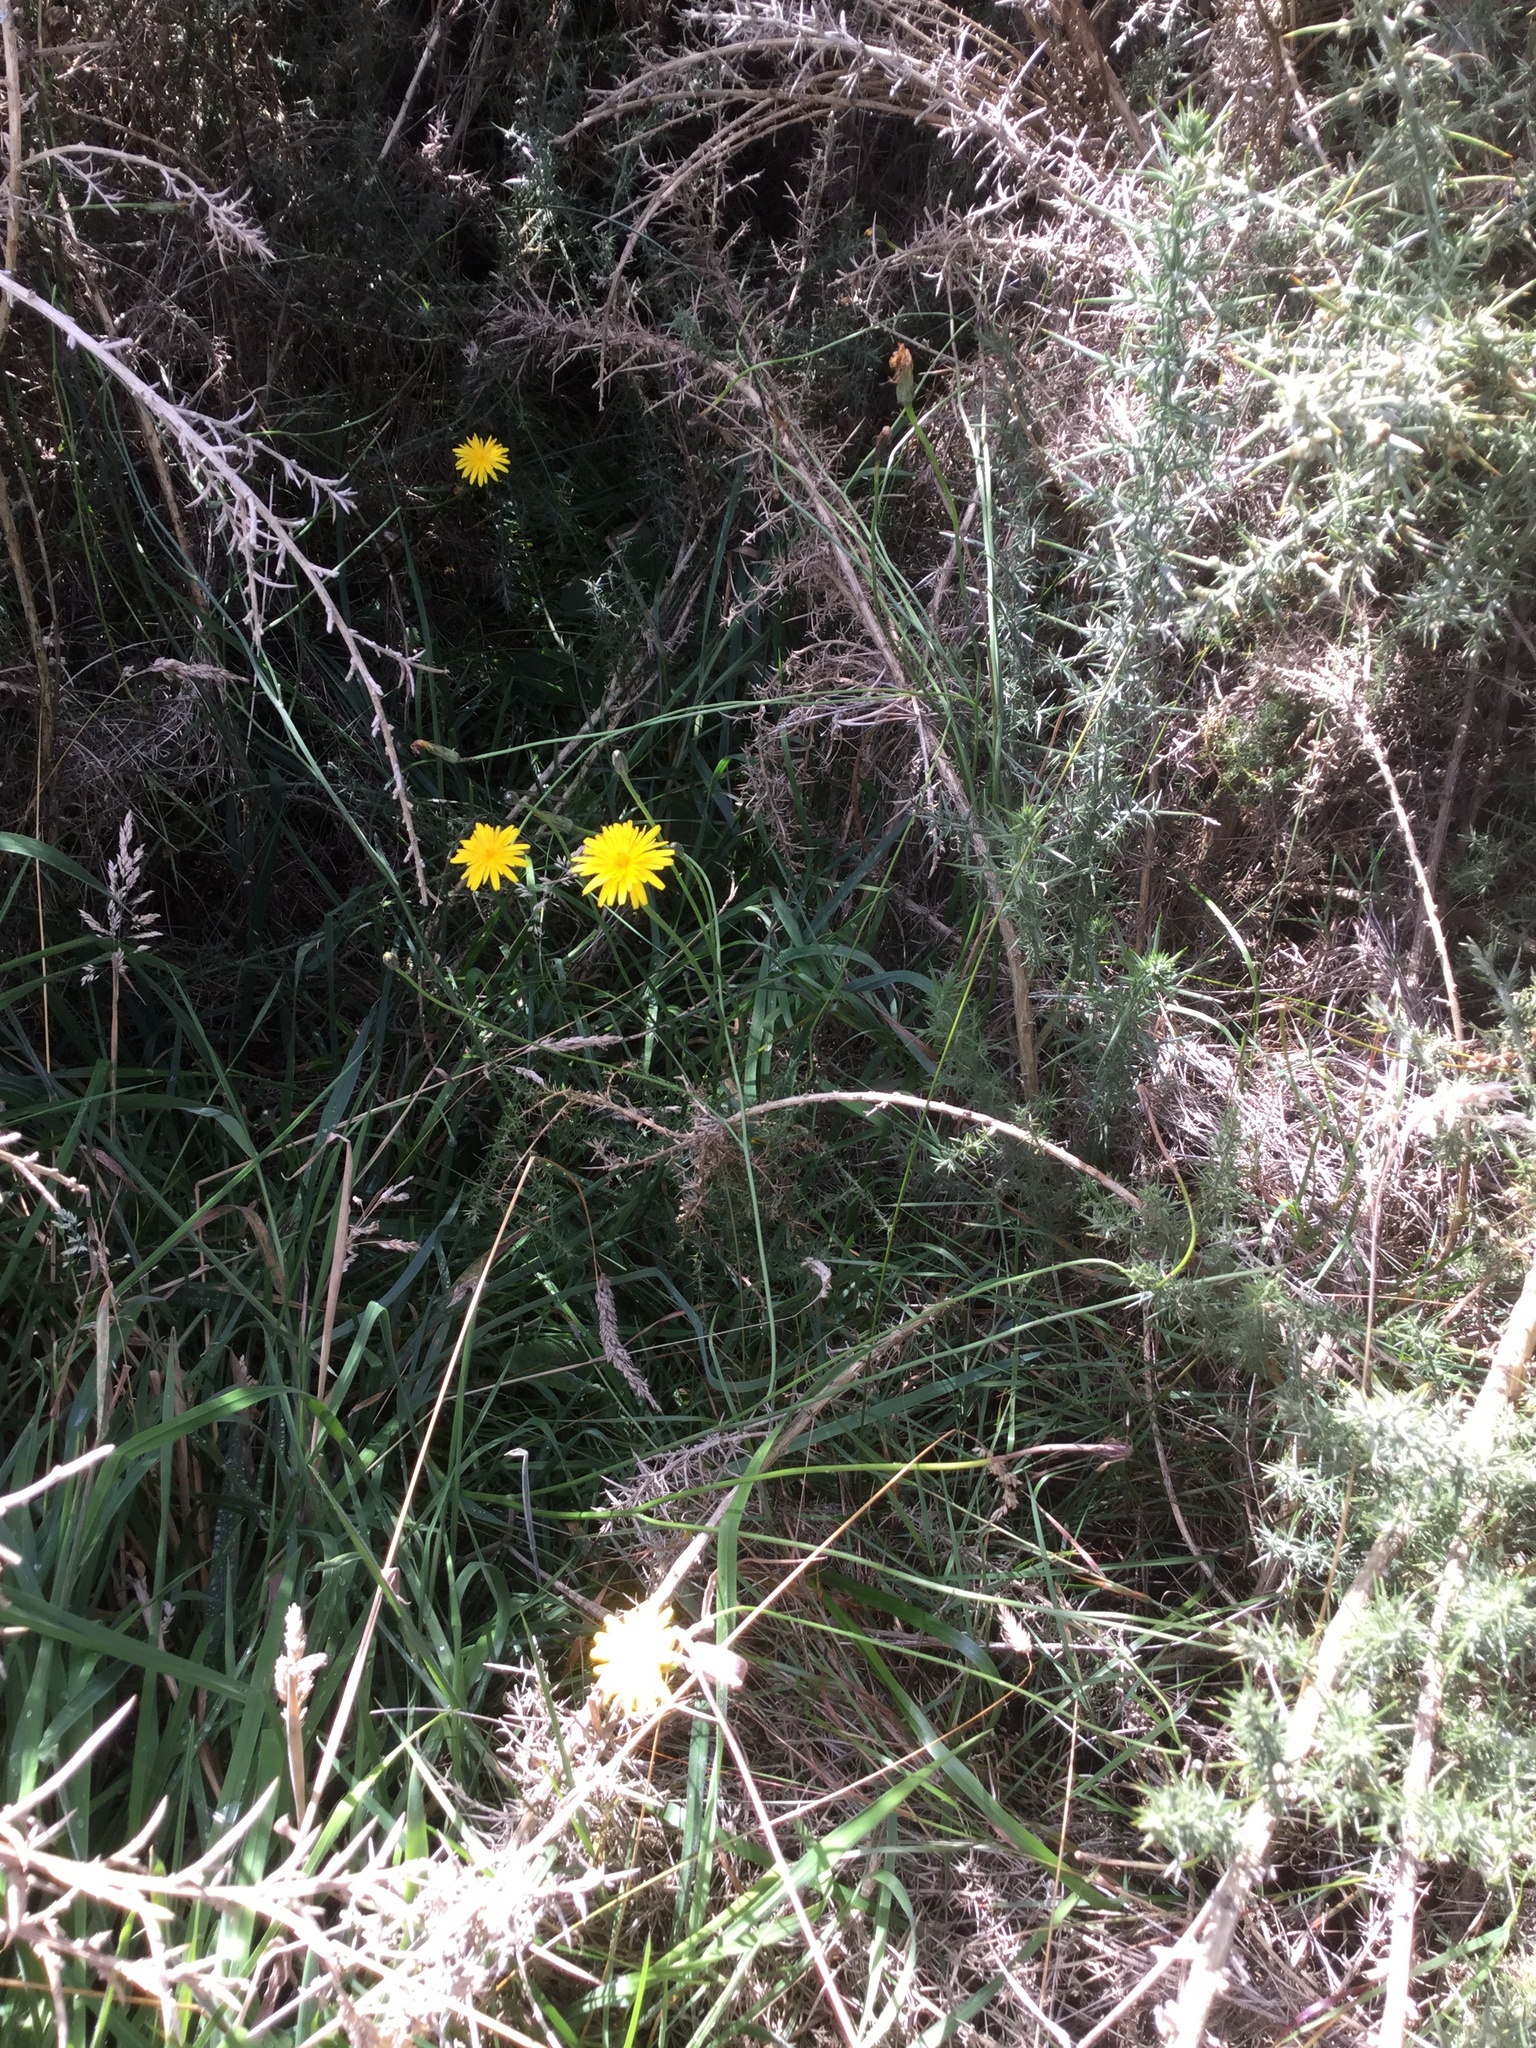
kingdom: Plantae
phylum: Tracheophyta
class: Magnoliopsida
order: Asterales
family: Asteraceae
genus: Hypochaeris
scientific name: Hypochaeris radicata
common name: Flatweed
